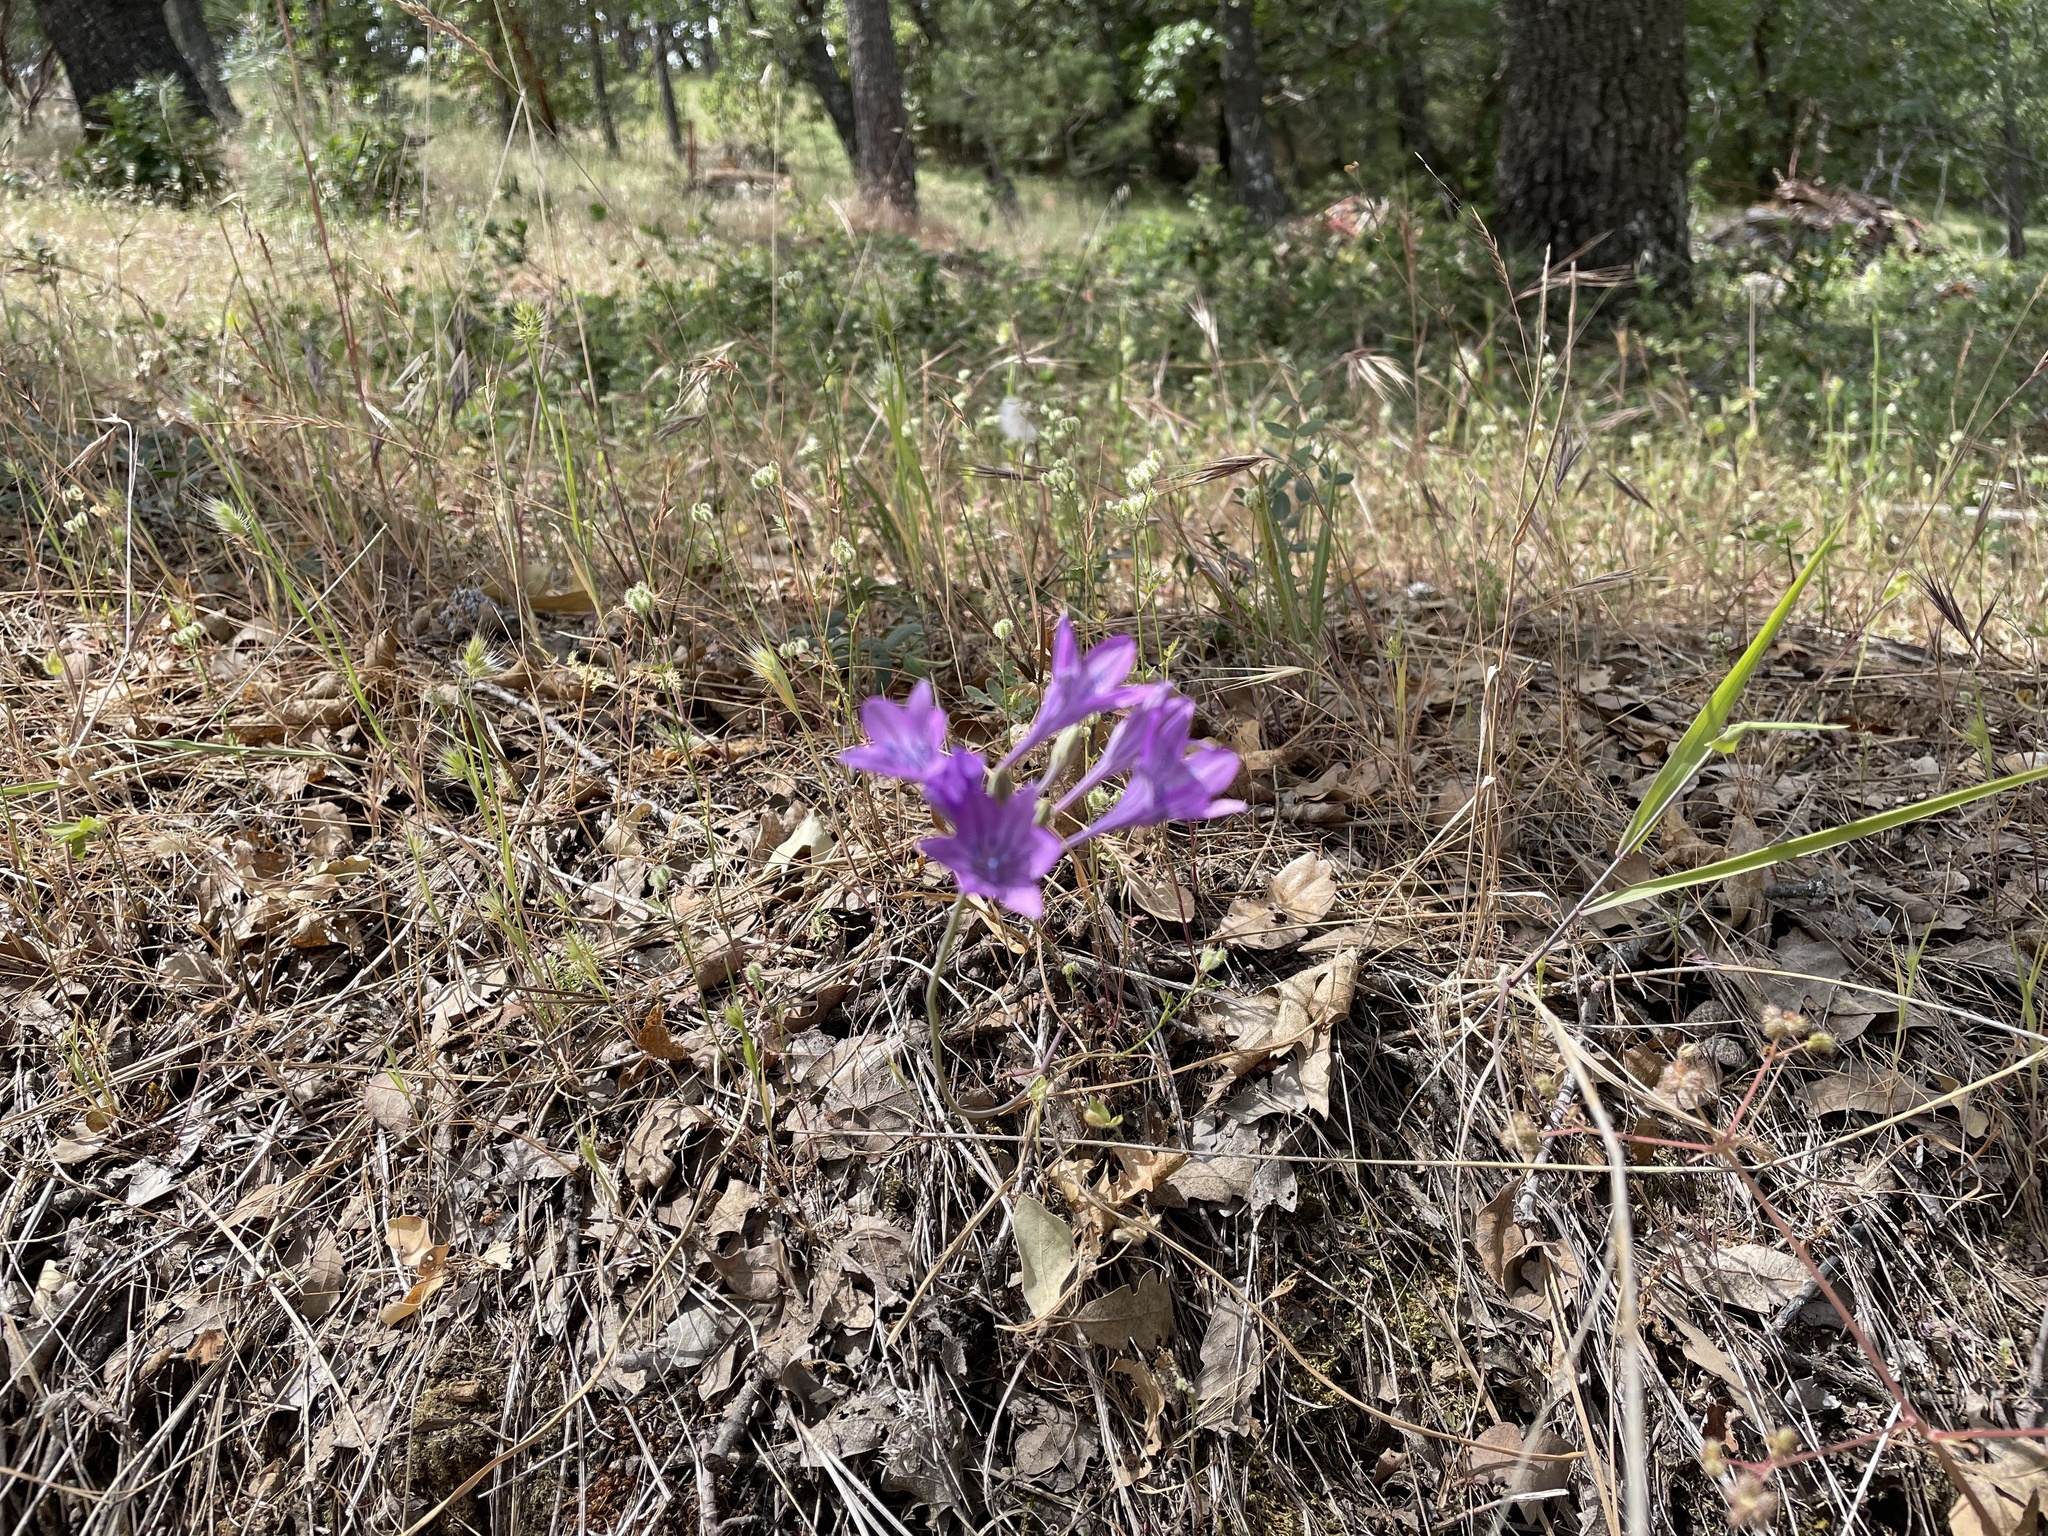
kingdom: Plantae
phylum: Tracheophyta
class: Liliopsida
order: Asparagales
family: Asparagaceae
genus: Triteleia
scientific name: Triteleia laxa
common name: Triplet-lily
